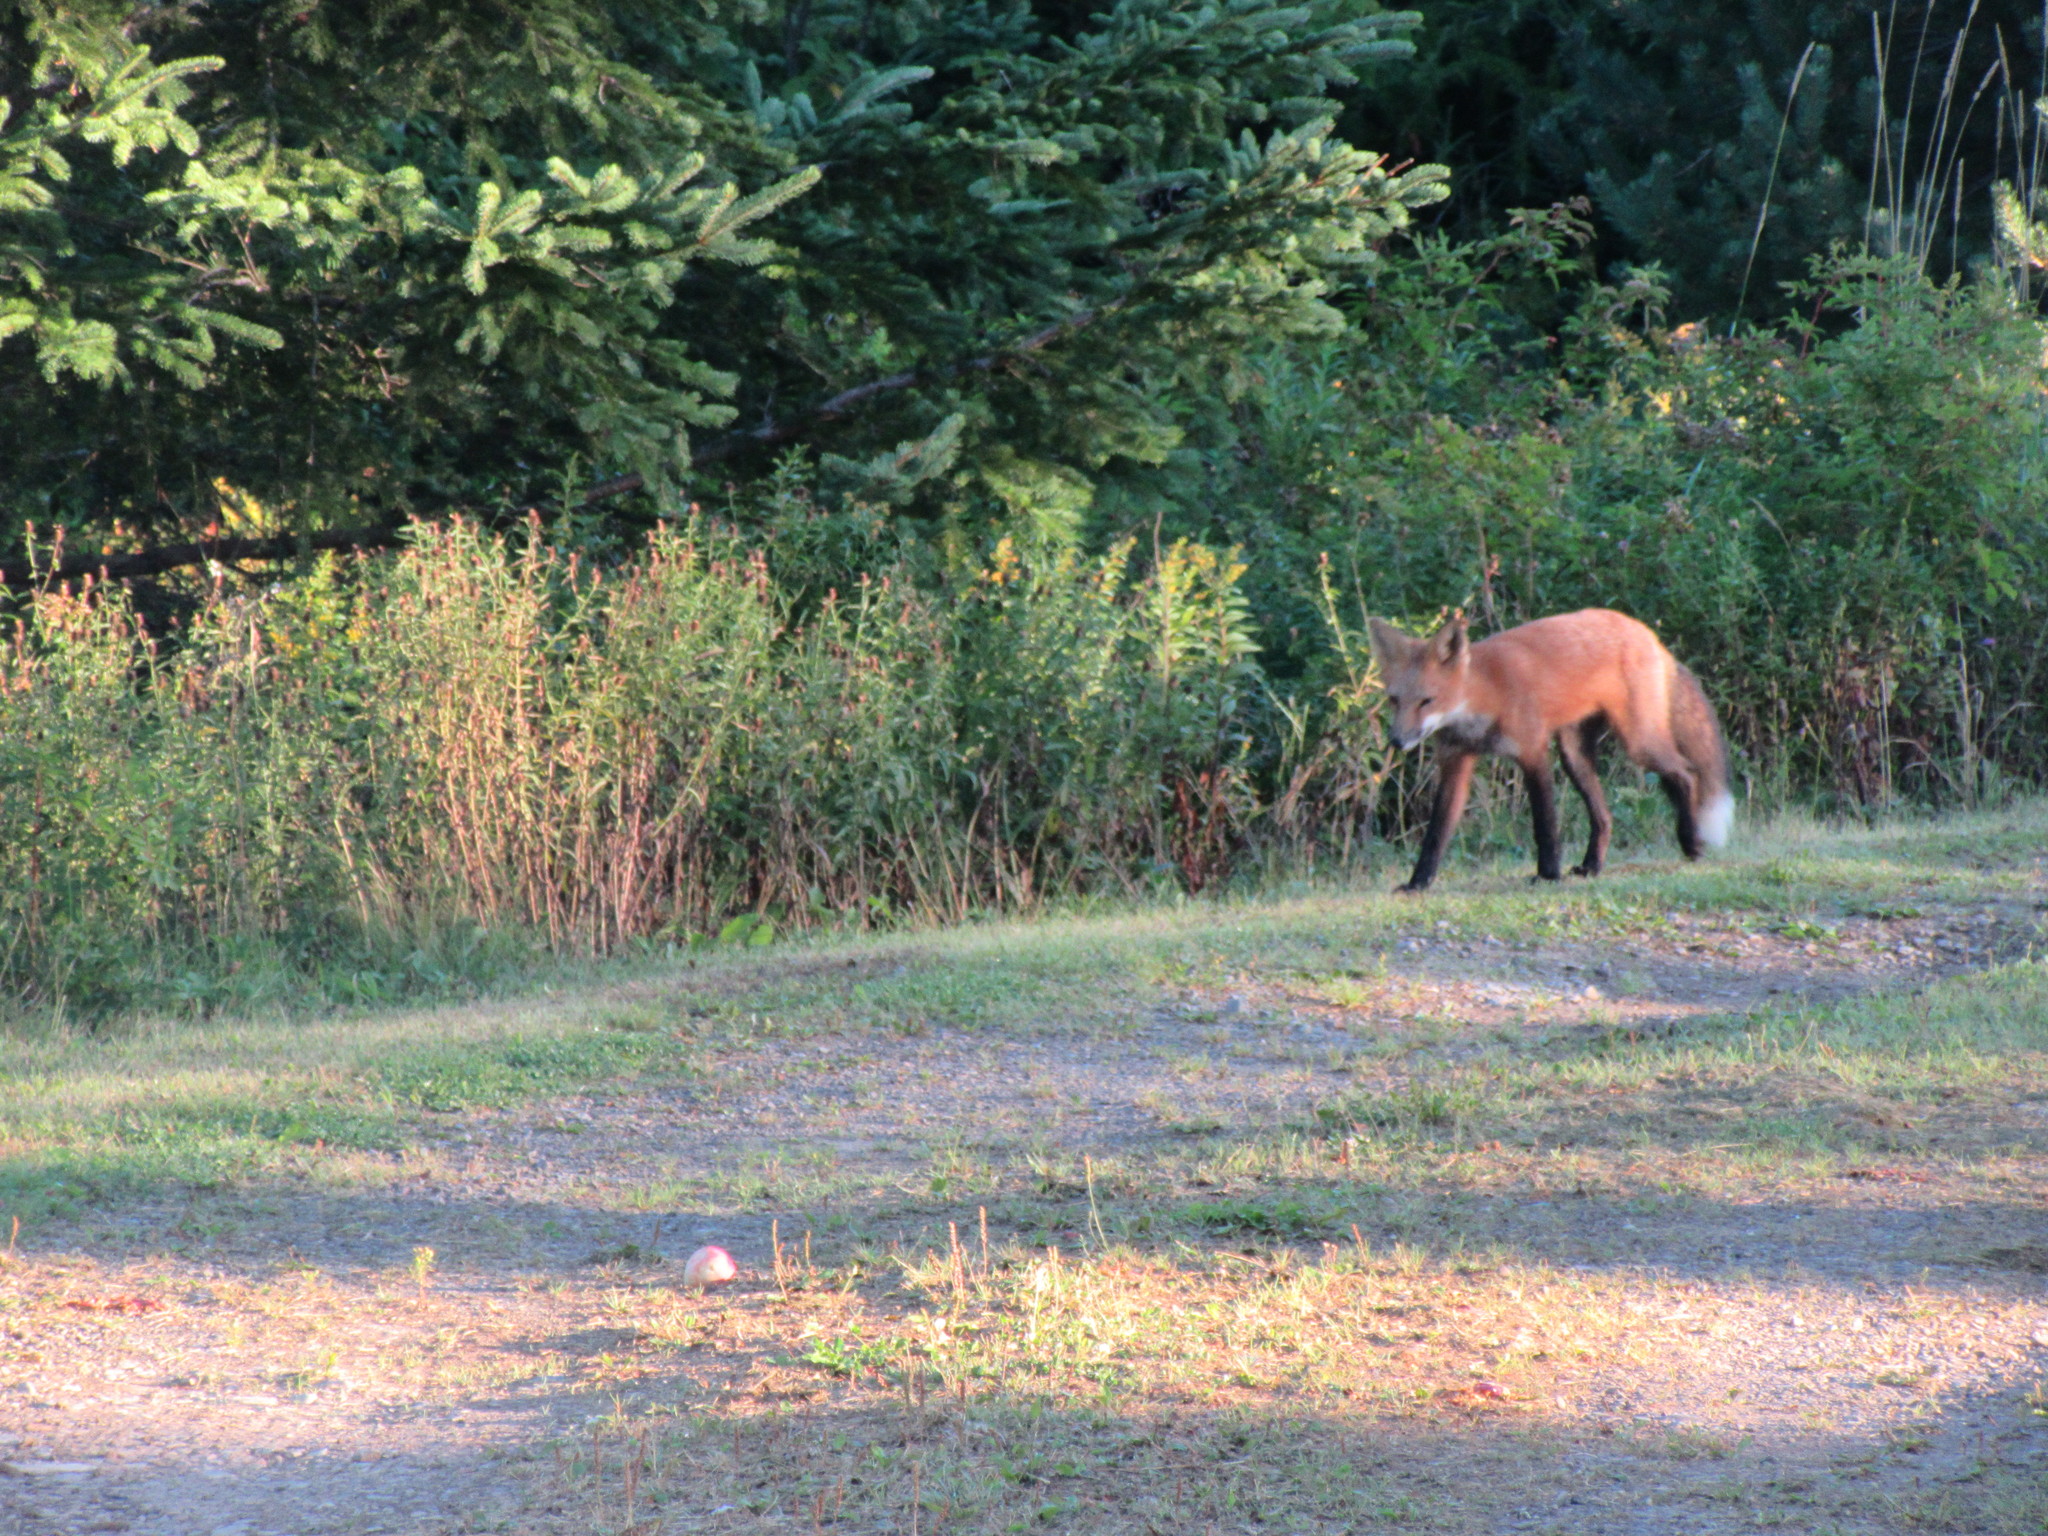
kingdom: Animalia
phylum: Chordata
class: Mammalia
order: Carnivora
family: Canidae
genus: Vulpes
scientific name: Vulpes vulpes
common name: Red fox
